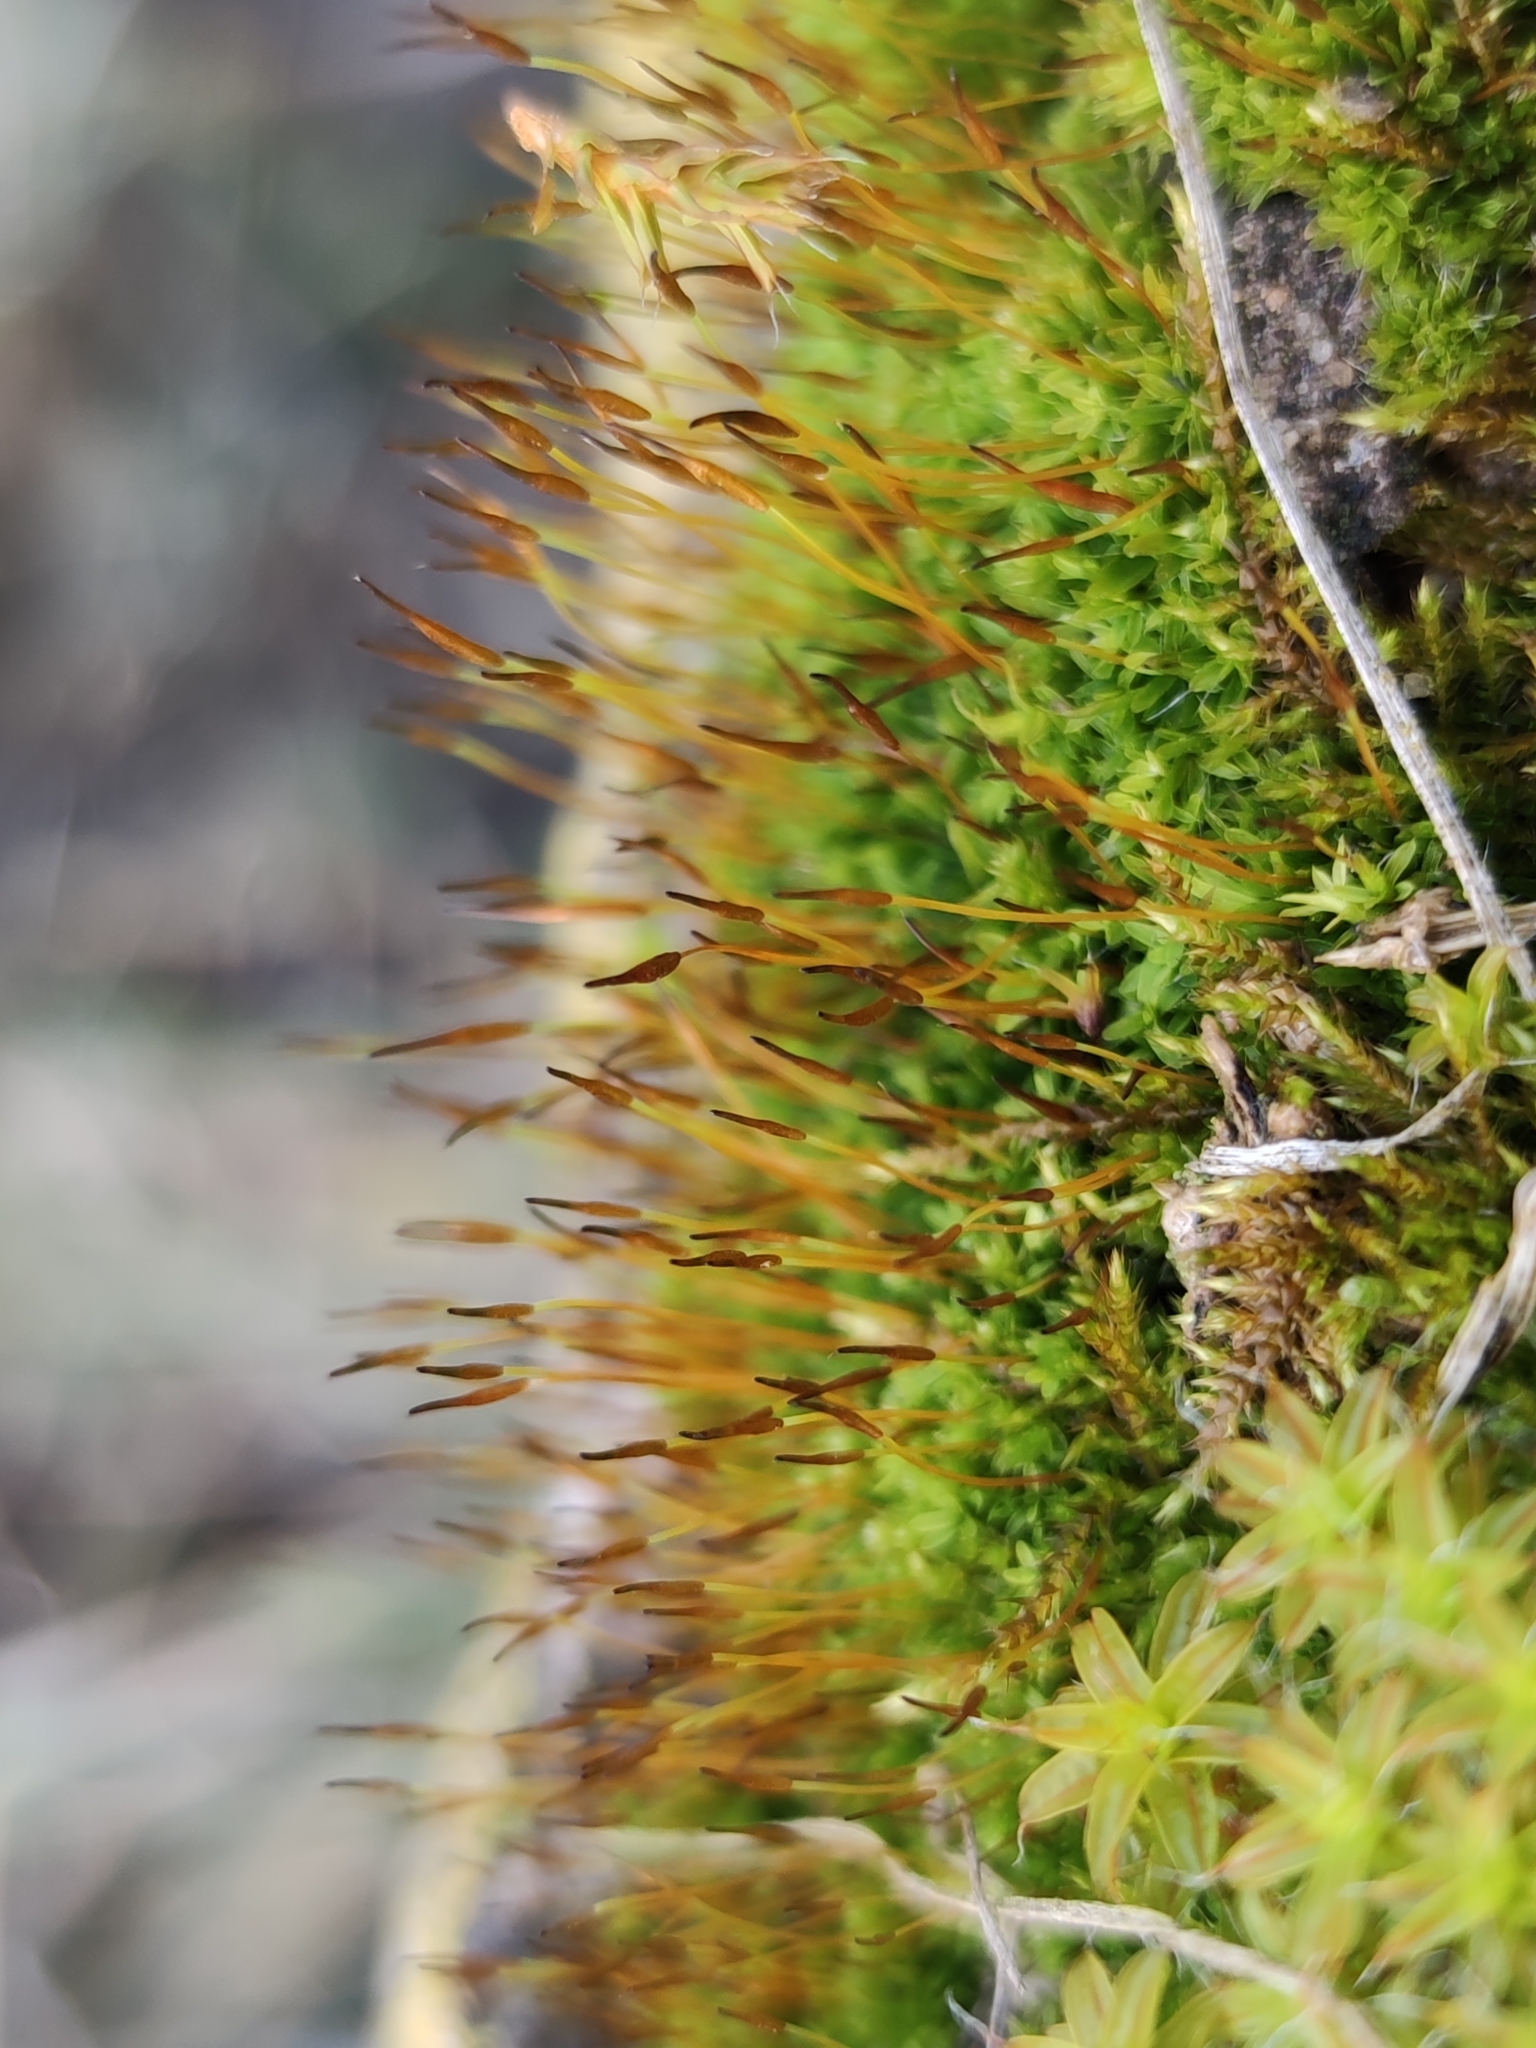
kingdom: Plantae
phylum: Bryophyta
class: Bryopsida
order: Pottiales
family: Pottiaceae
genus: Tortula
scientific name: Tortula muralis
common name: Wall screw-moss
